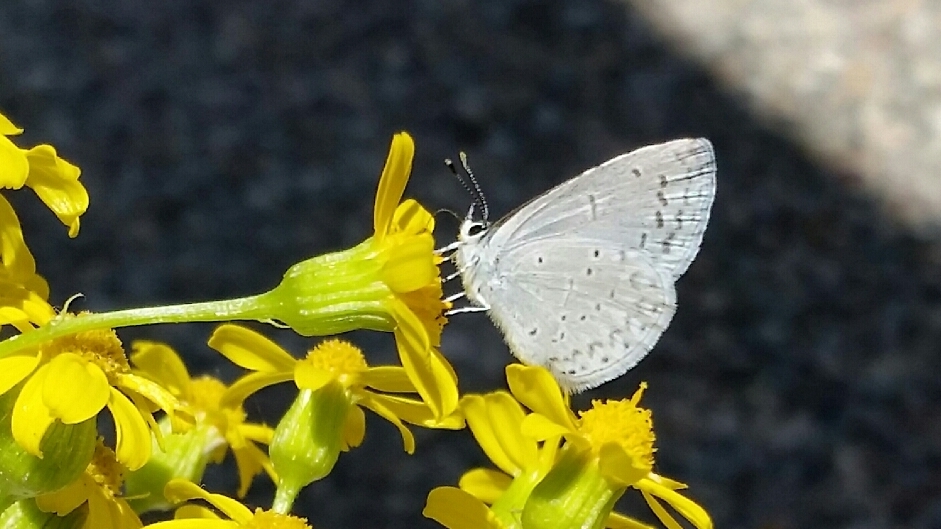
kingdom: Animalia
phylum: Arthropoda
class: Insecta
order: Lepidoptera
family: Lycaenidae
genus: Celastrina
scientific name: Celastrina ladon
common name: Spring azure
